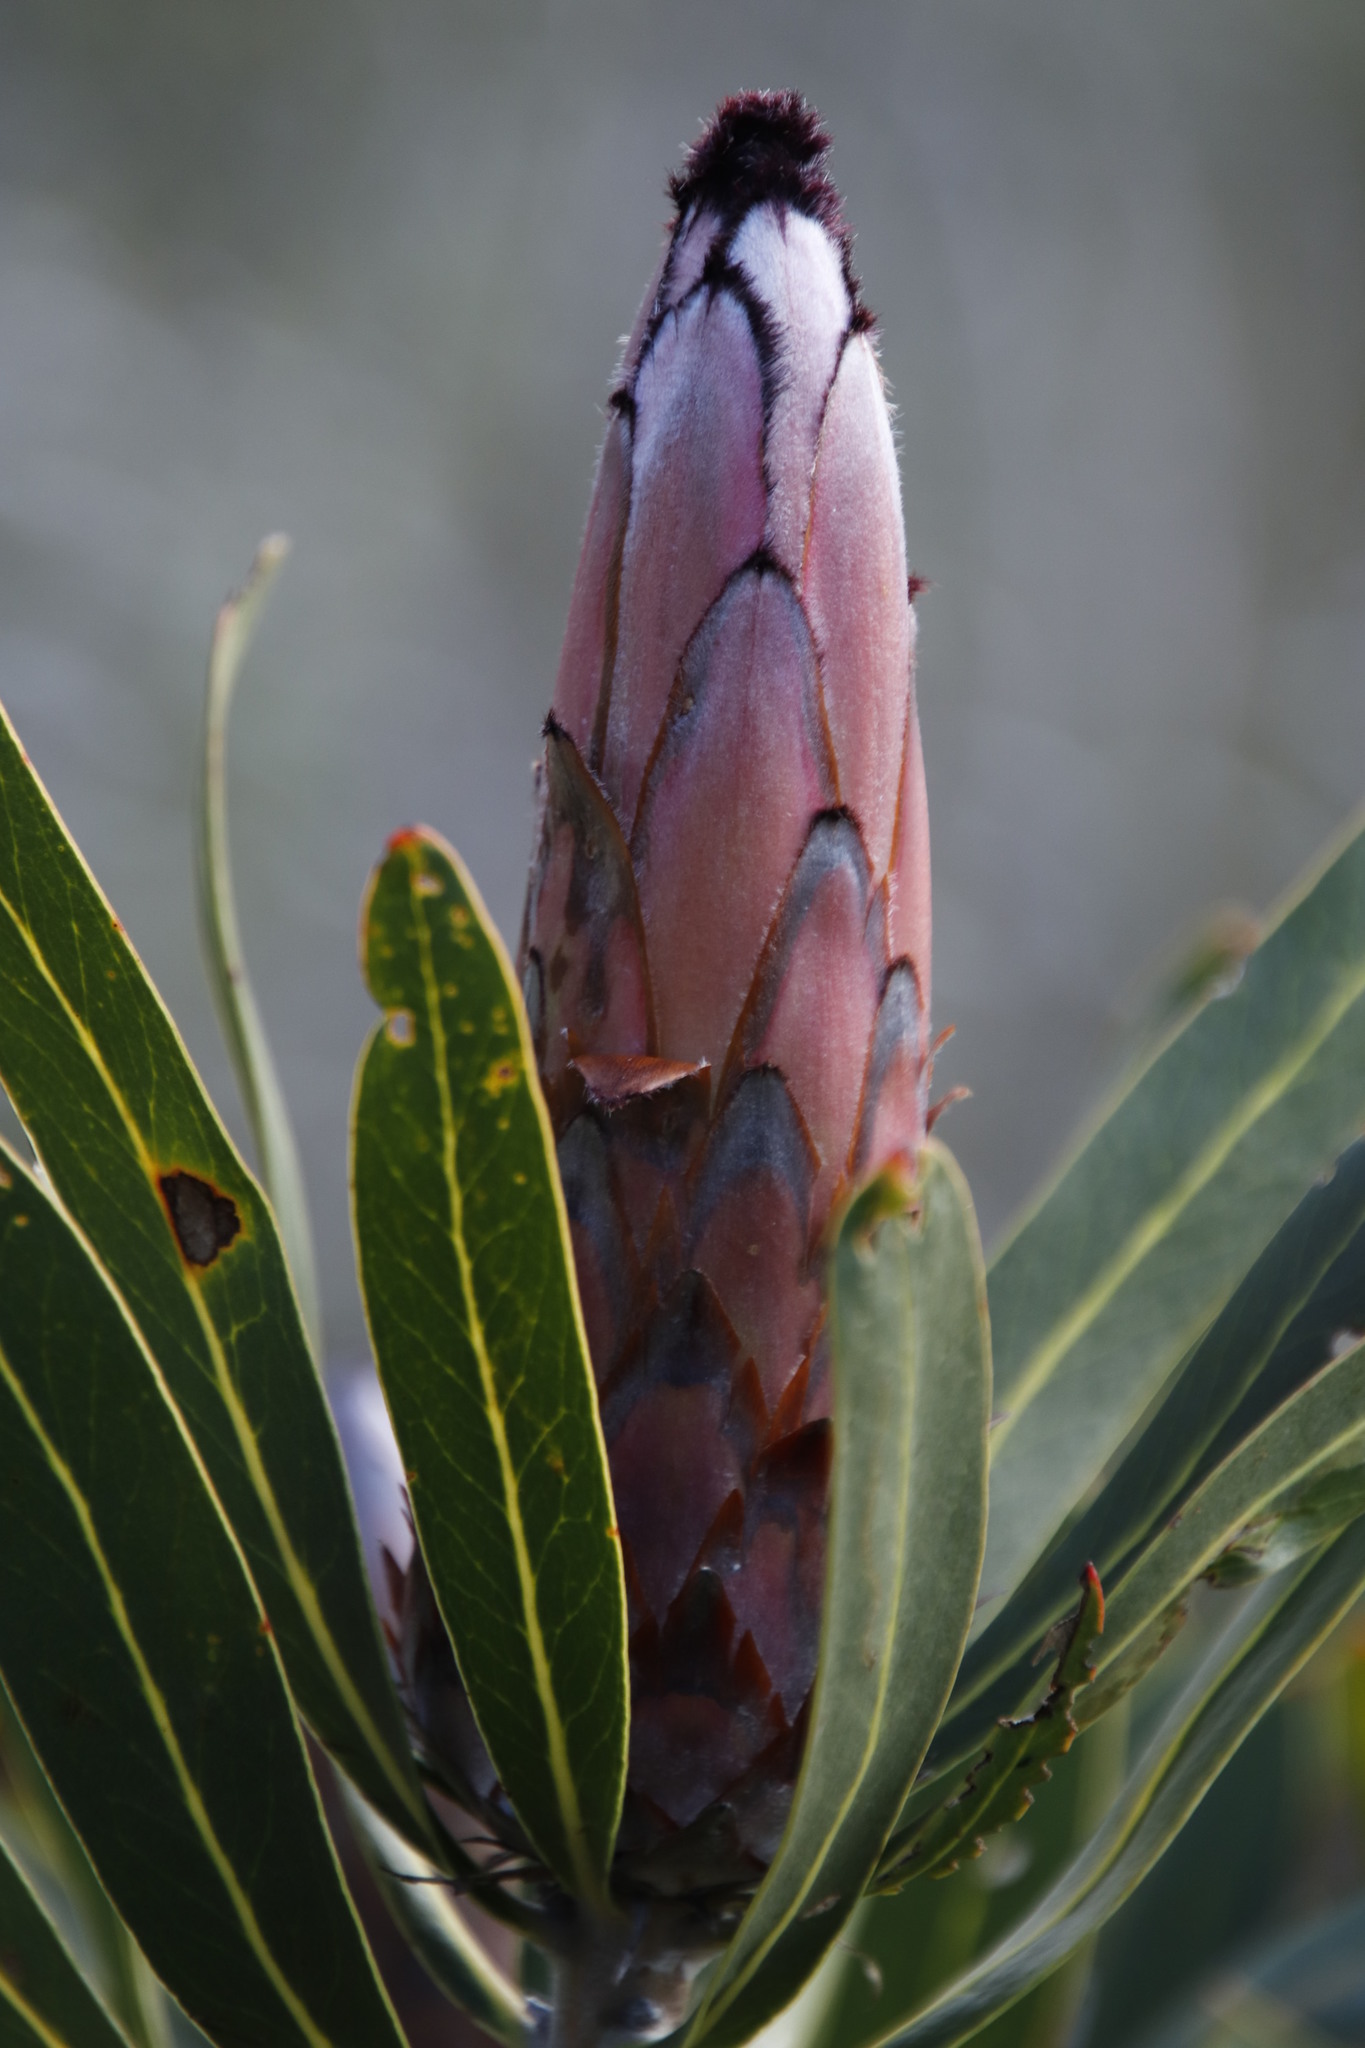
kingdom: Plantae
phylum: Tracheophyta
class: Magnoliopsida
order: Proteales
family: Proteaceae
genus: Protea
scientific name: Protea neriifolia
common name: Blue sugarbush
